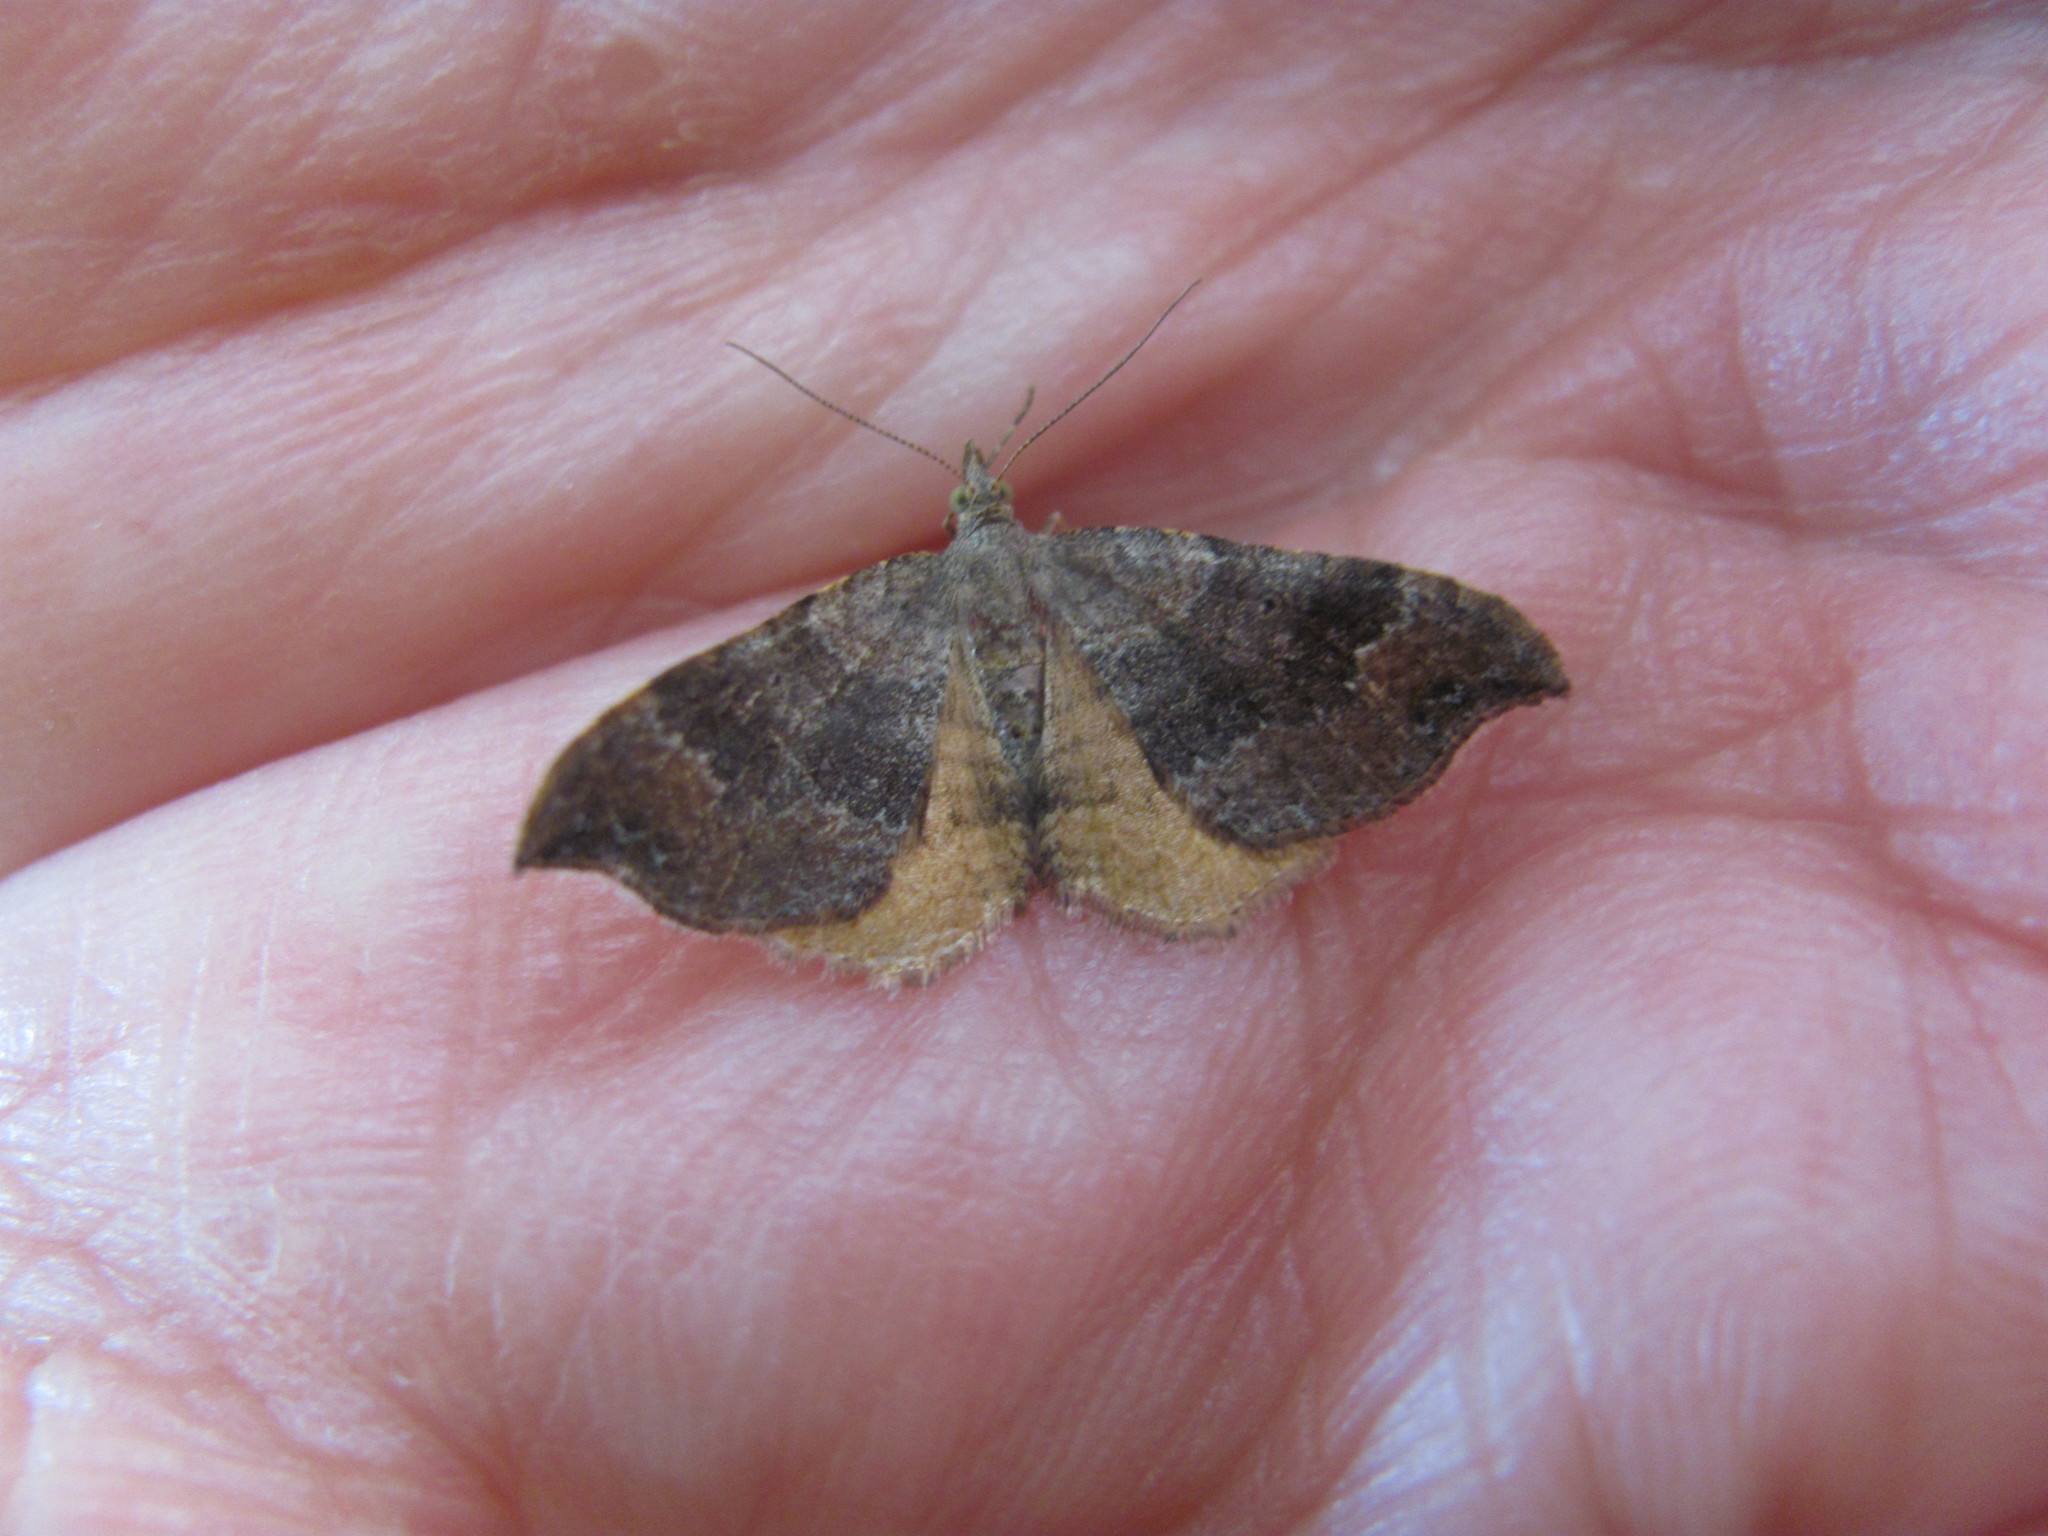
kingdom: Animalia
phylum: Arthropoda
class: Insecta
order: Lepidoptera
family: Geometridae
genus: Homodotis
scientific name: Homodotis megaspilata
